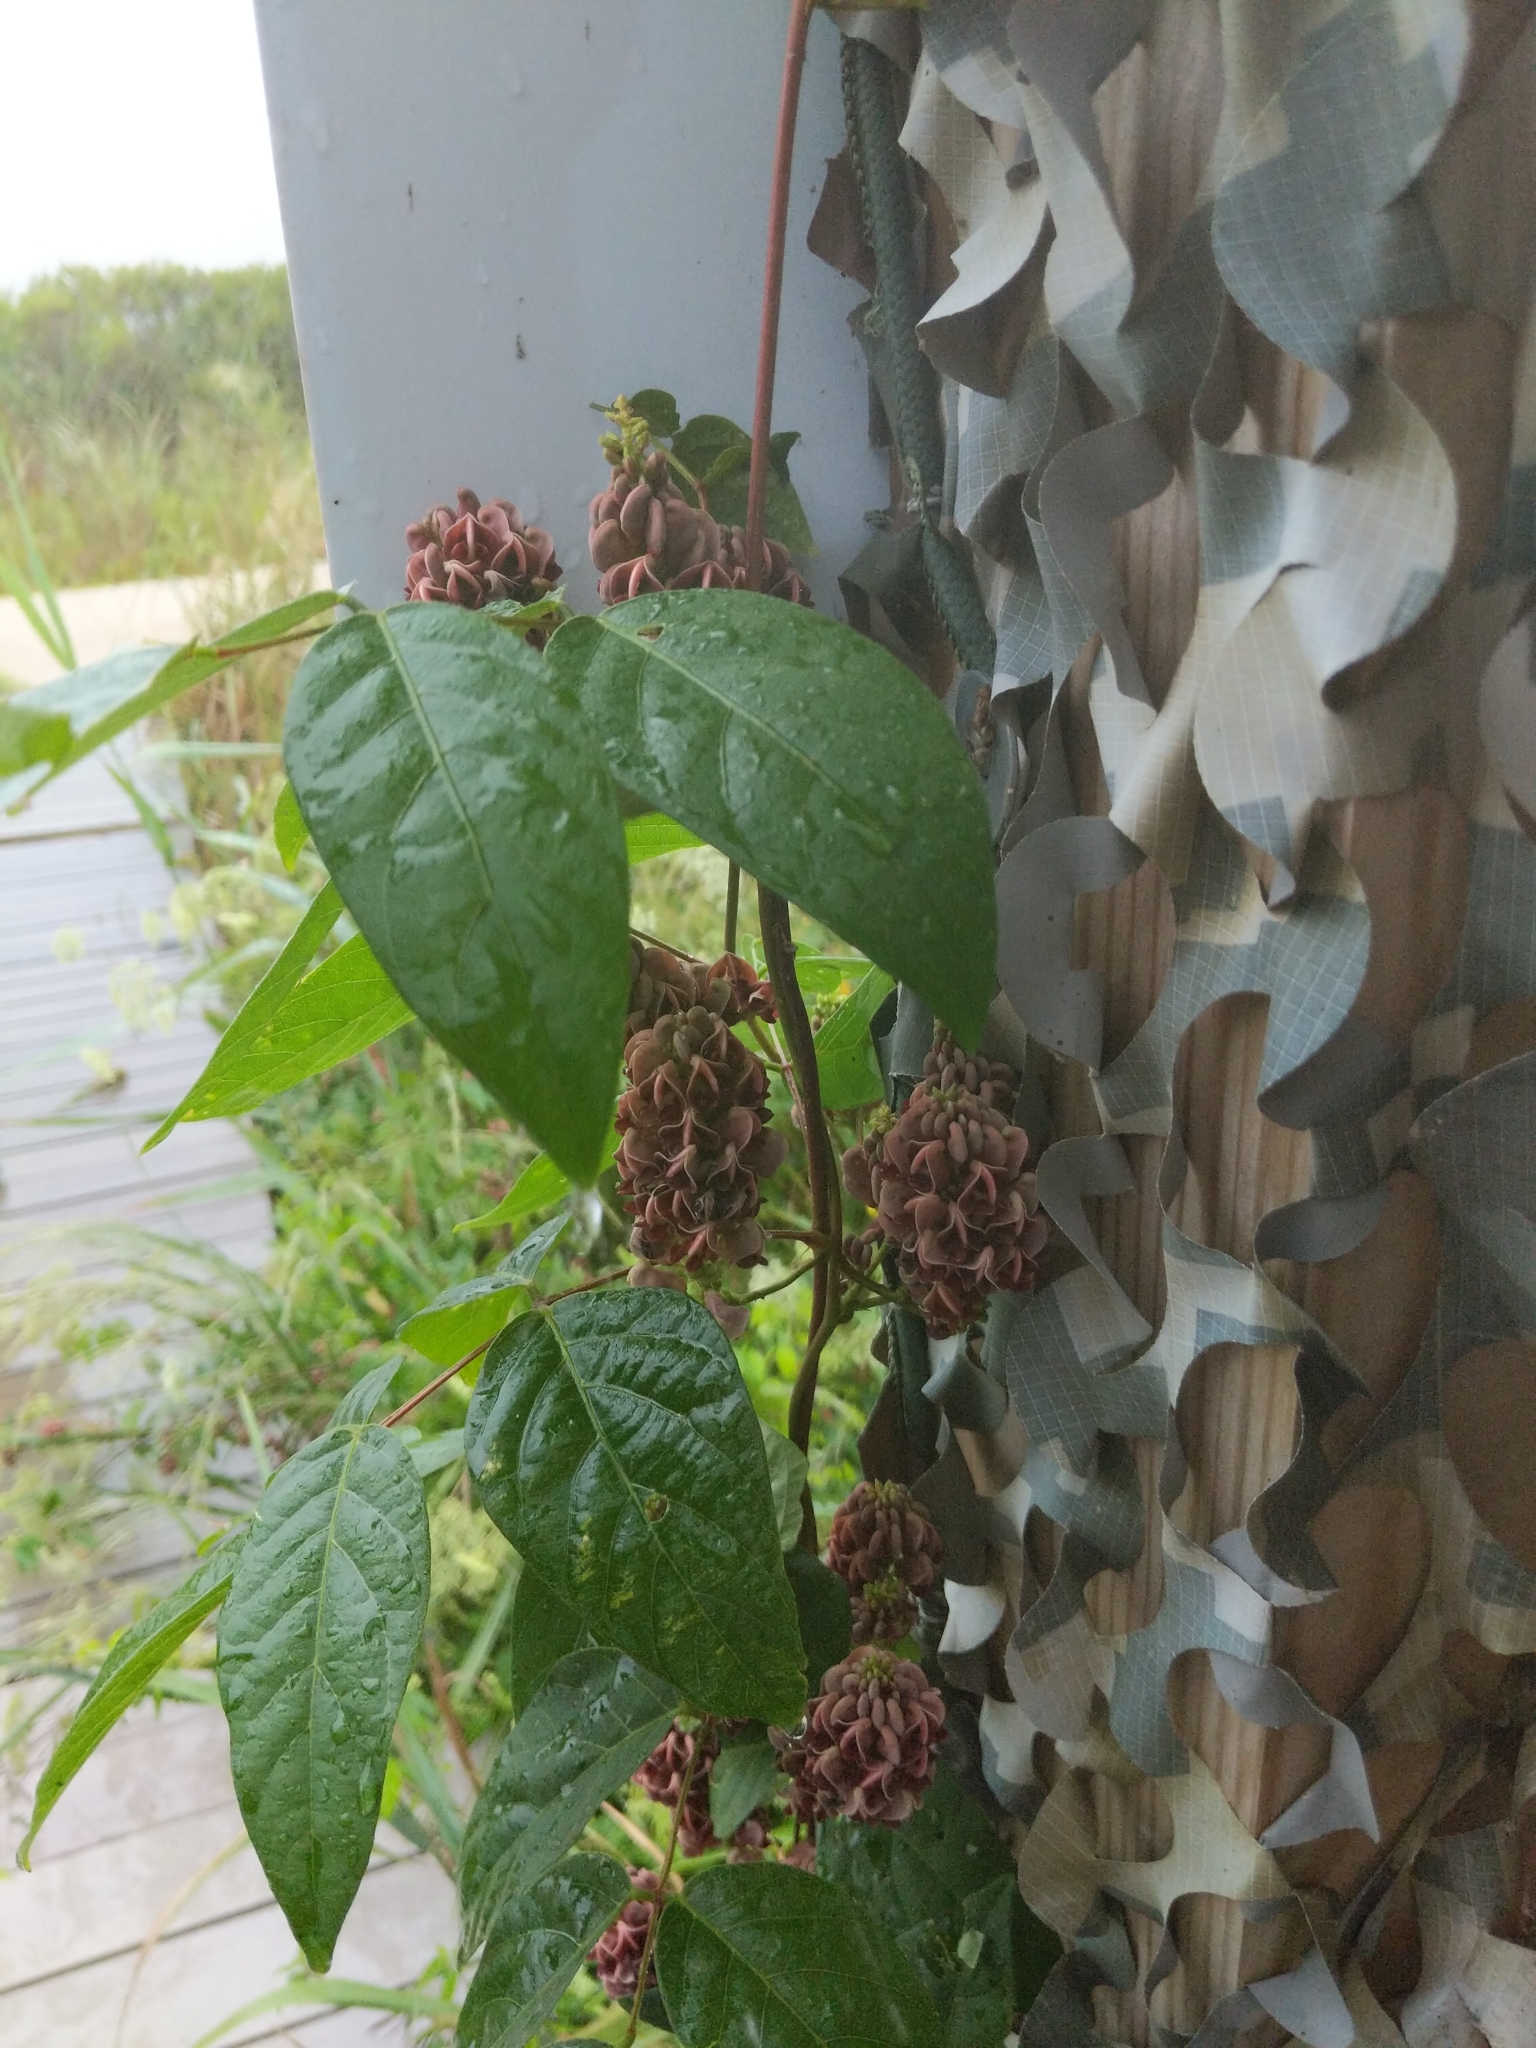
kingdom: Plantae
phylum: Tracheophyta
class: Magnoliopsida
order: Fabales
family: Fabaceae
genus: Apios
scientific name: Apios americana
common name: American potato-bean
